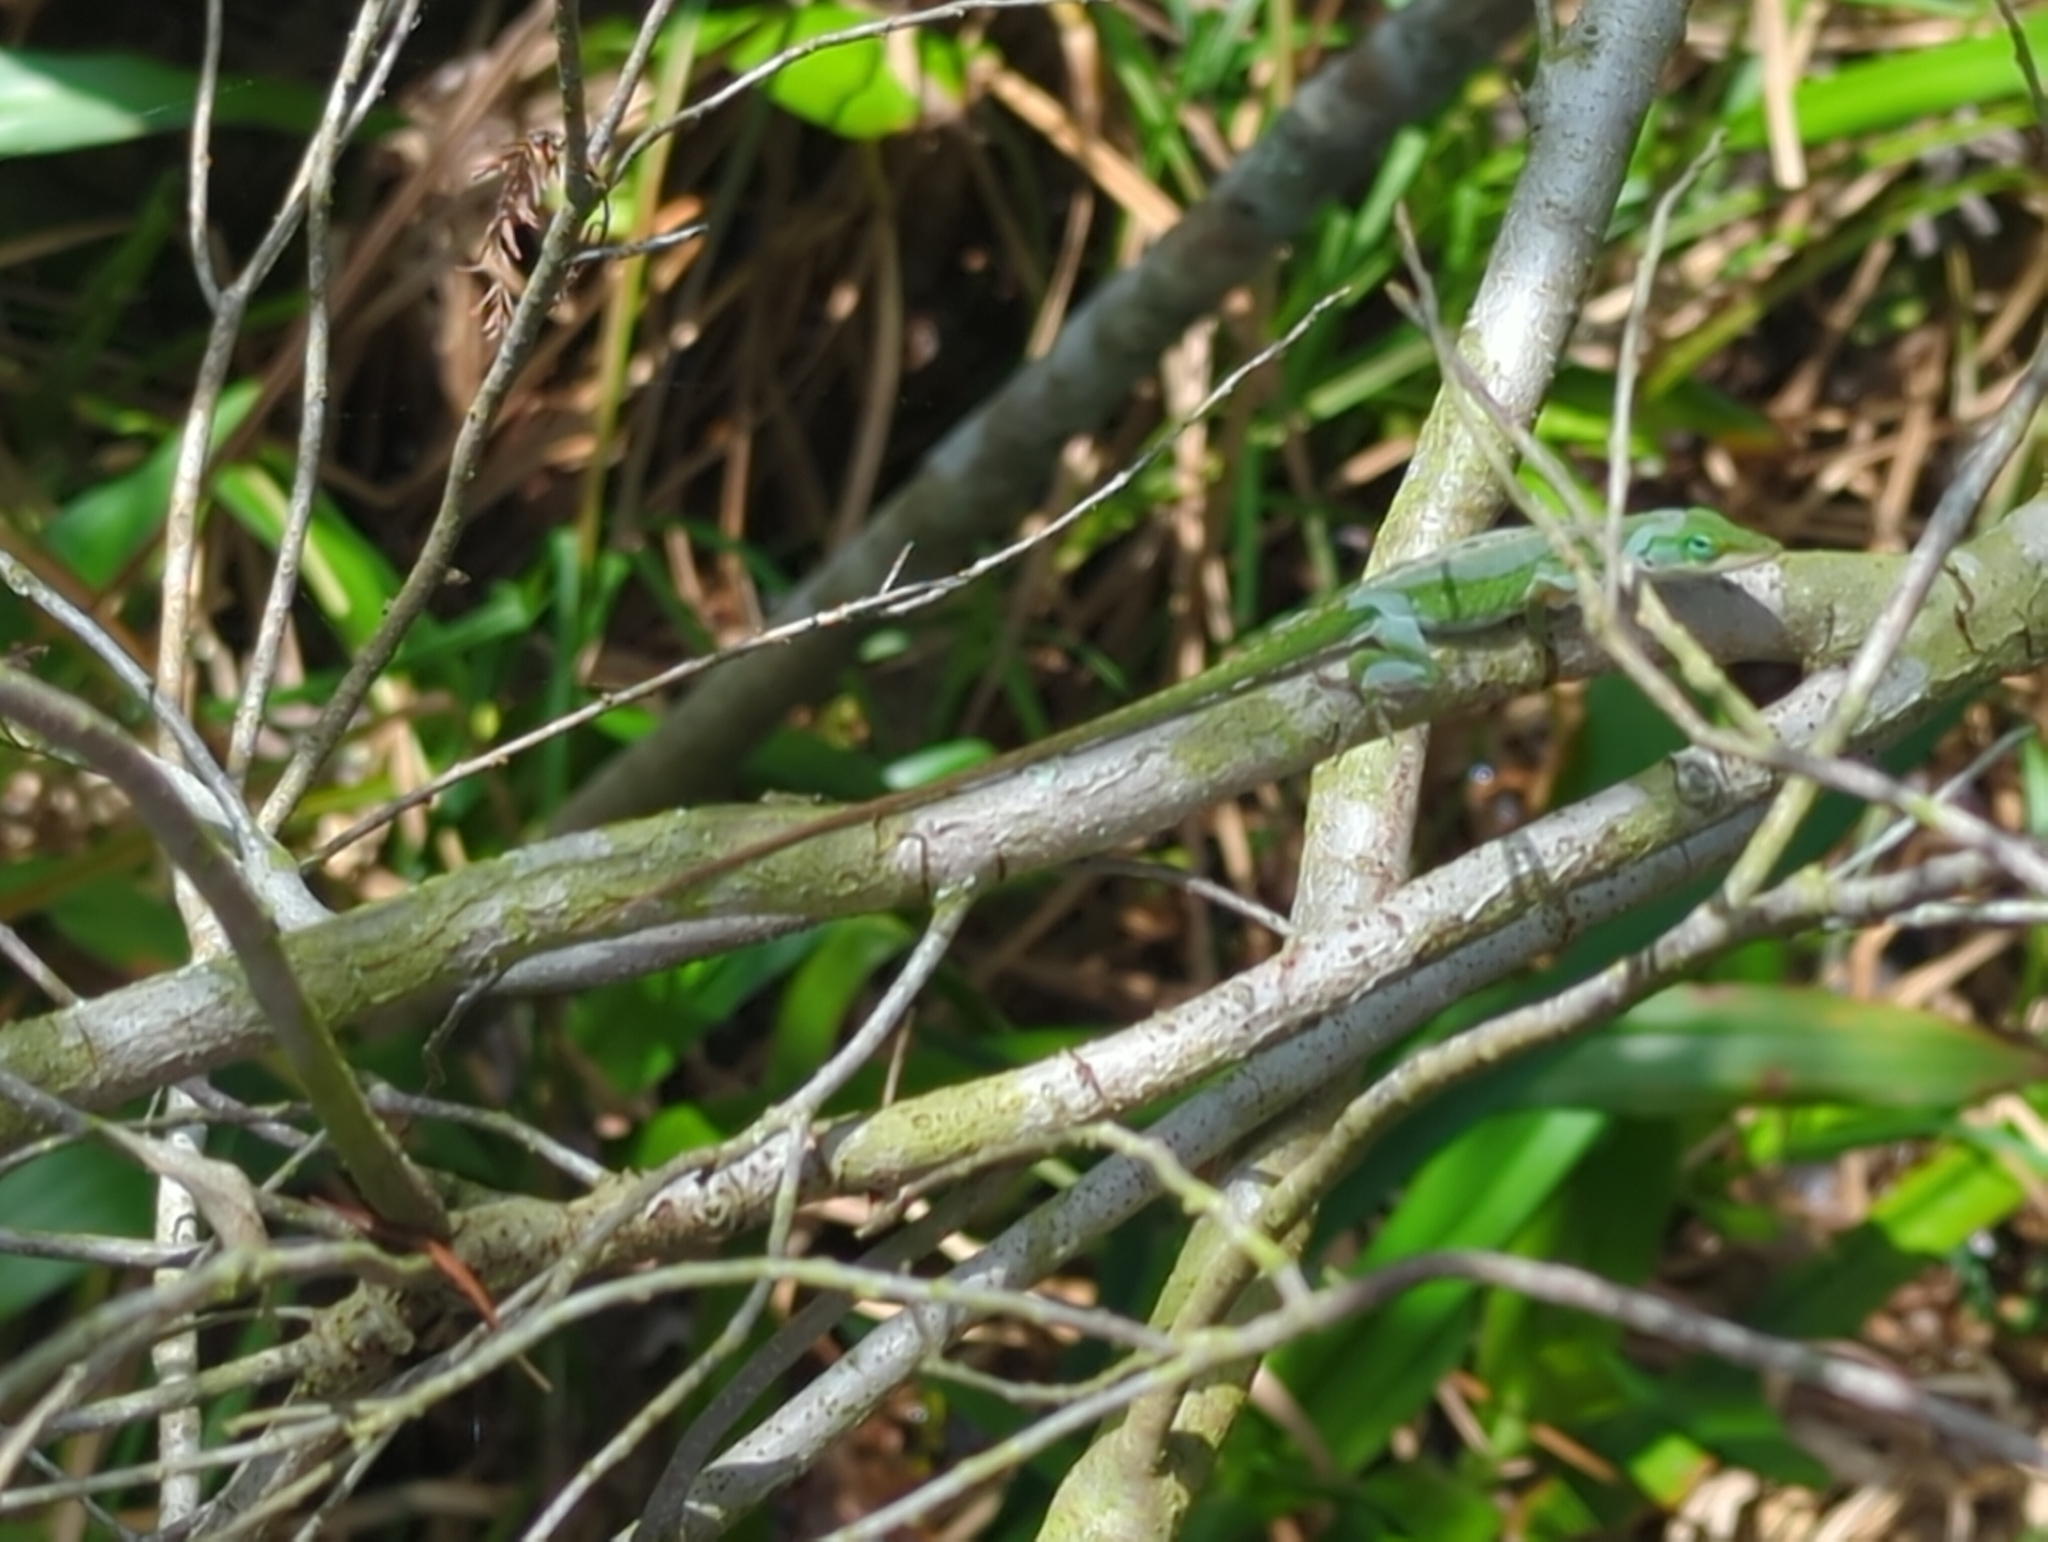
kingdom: Animalia
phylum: Chordata
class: Squamata
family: Dactyloidae
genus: Anolis
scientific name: Anolis carolinensis
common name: Green anole
